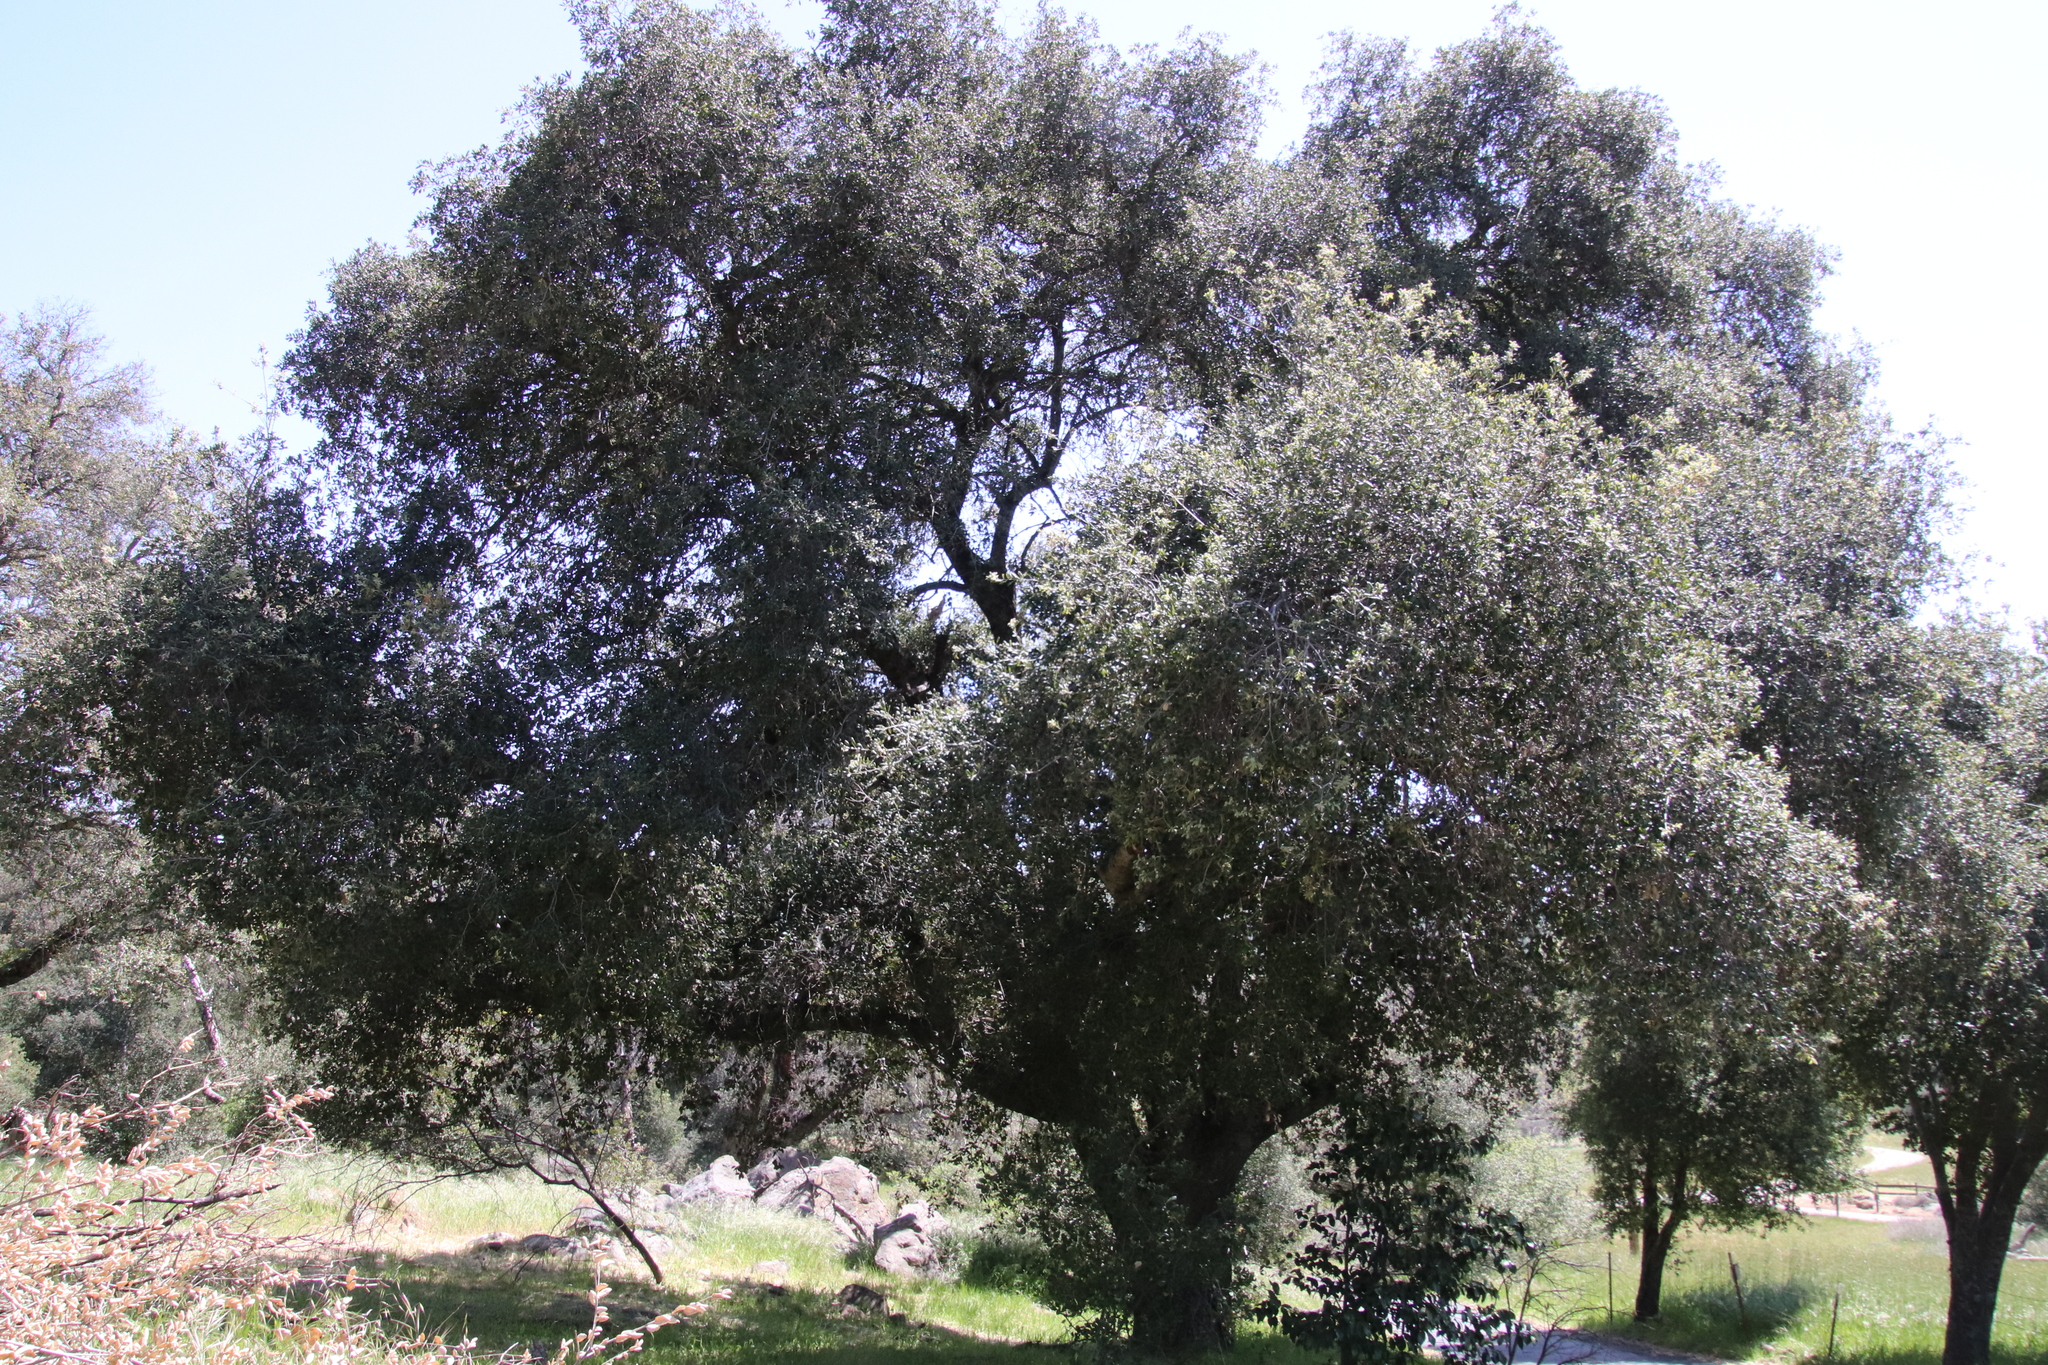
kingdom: Plantae
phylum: Tracheophyta
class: Magnoliopsida
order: Fagales
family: Fagaceae
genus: Quercus
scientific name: Quercus agrifolia
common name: California live oak
